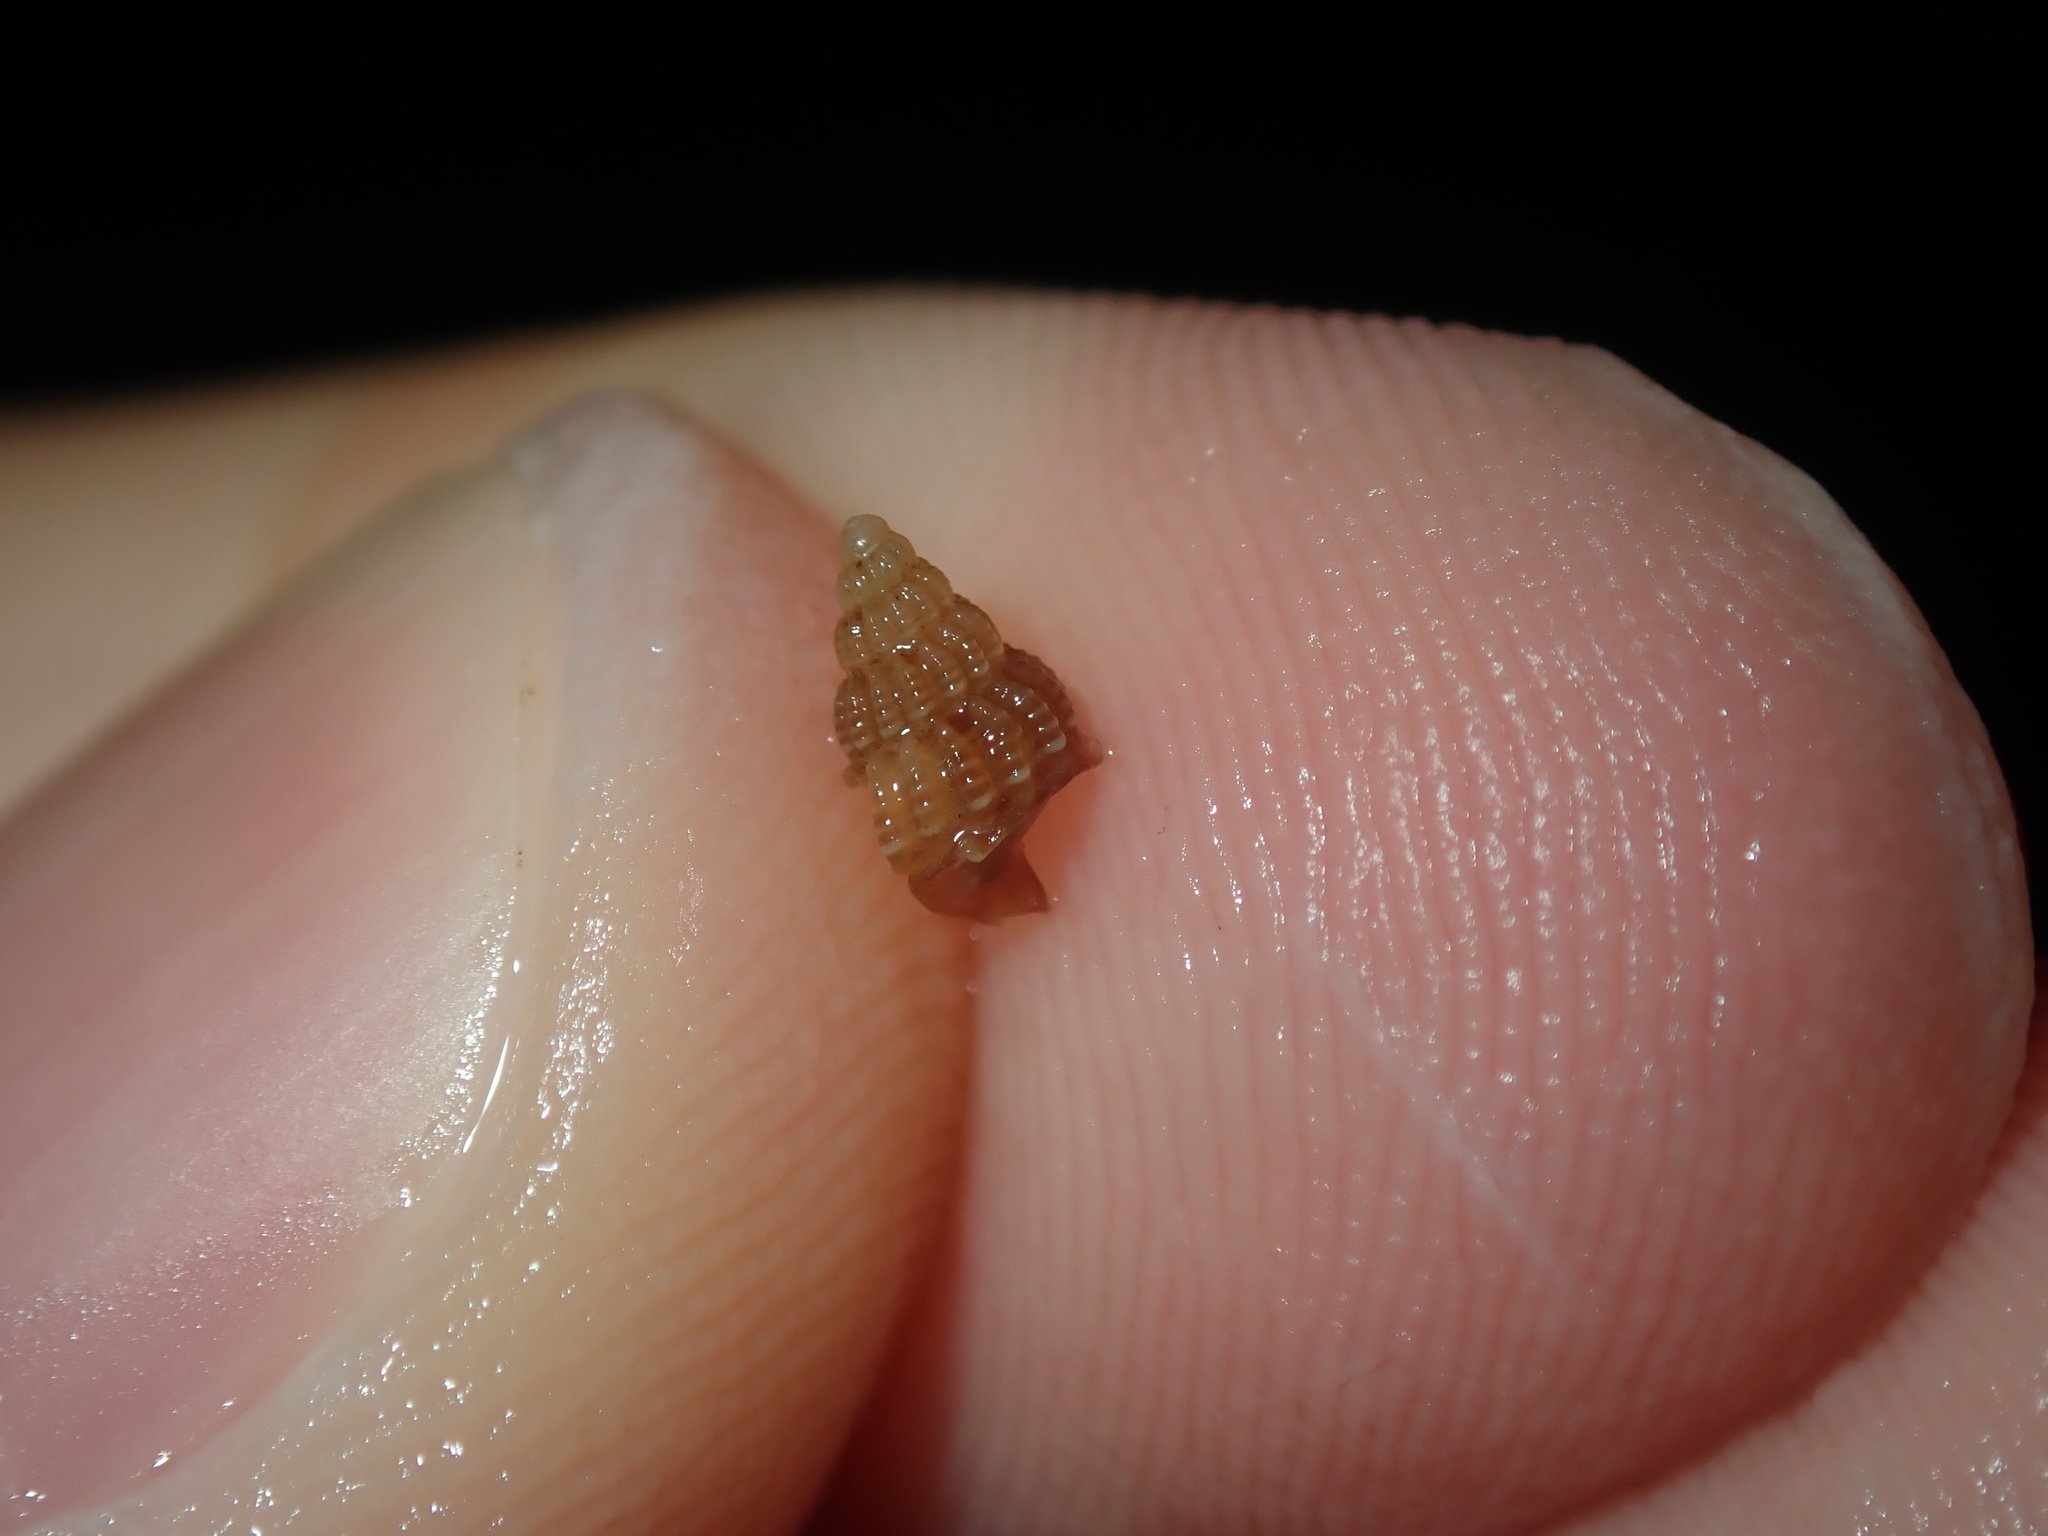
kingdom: Animalia
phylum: Mollusca
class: Gastropoda
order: Neogastropoda
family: Nassariidae
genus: Reticunassa
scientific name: Reticunassa paupera
